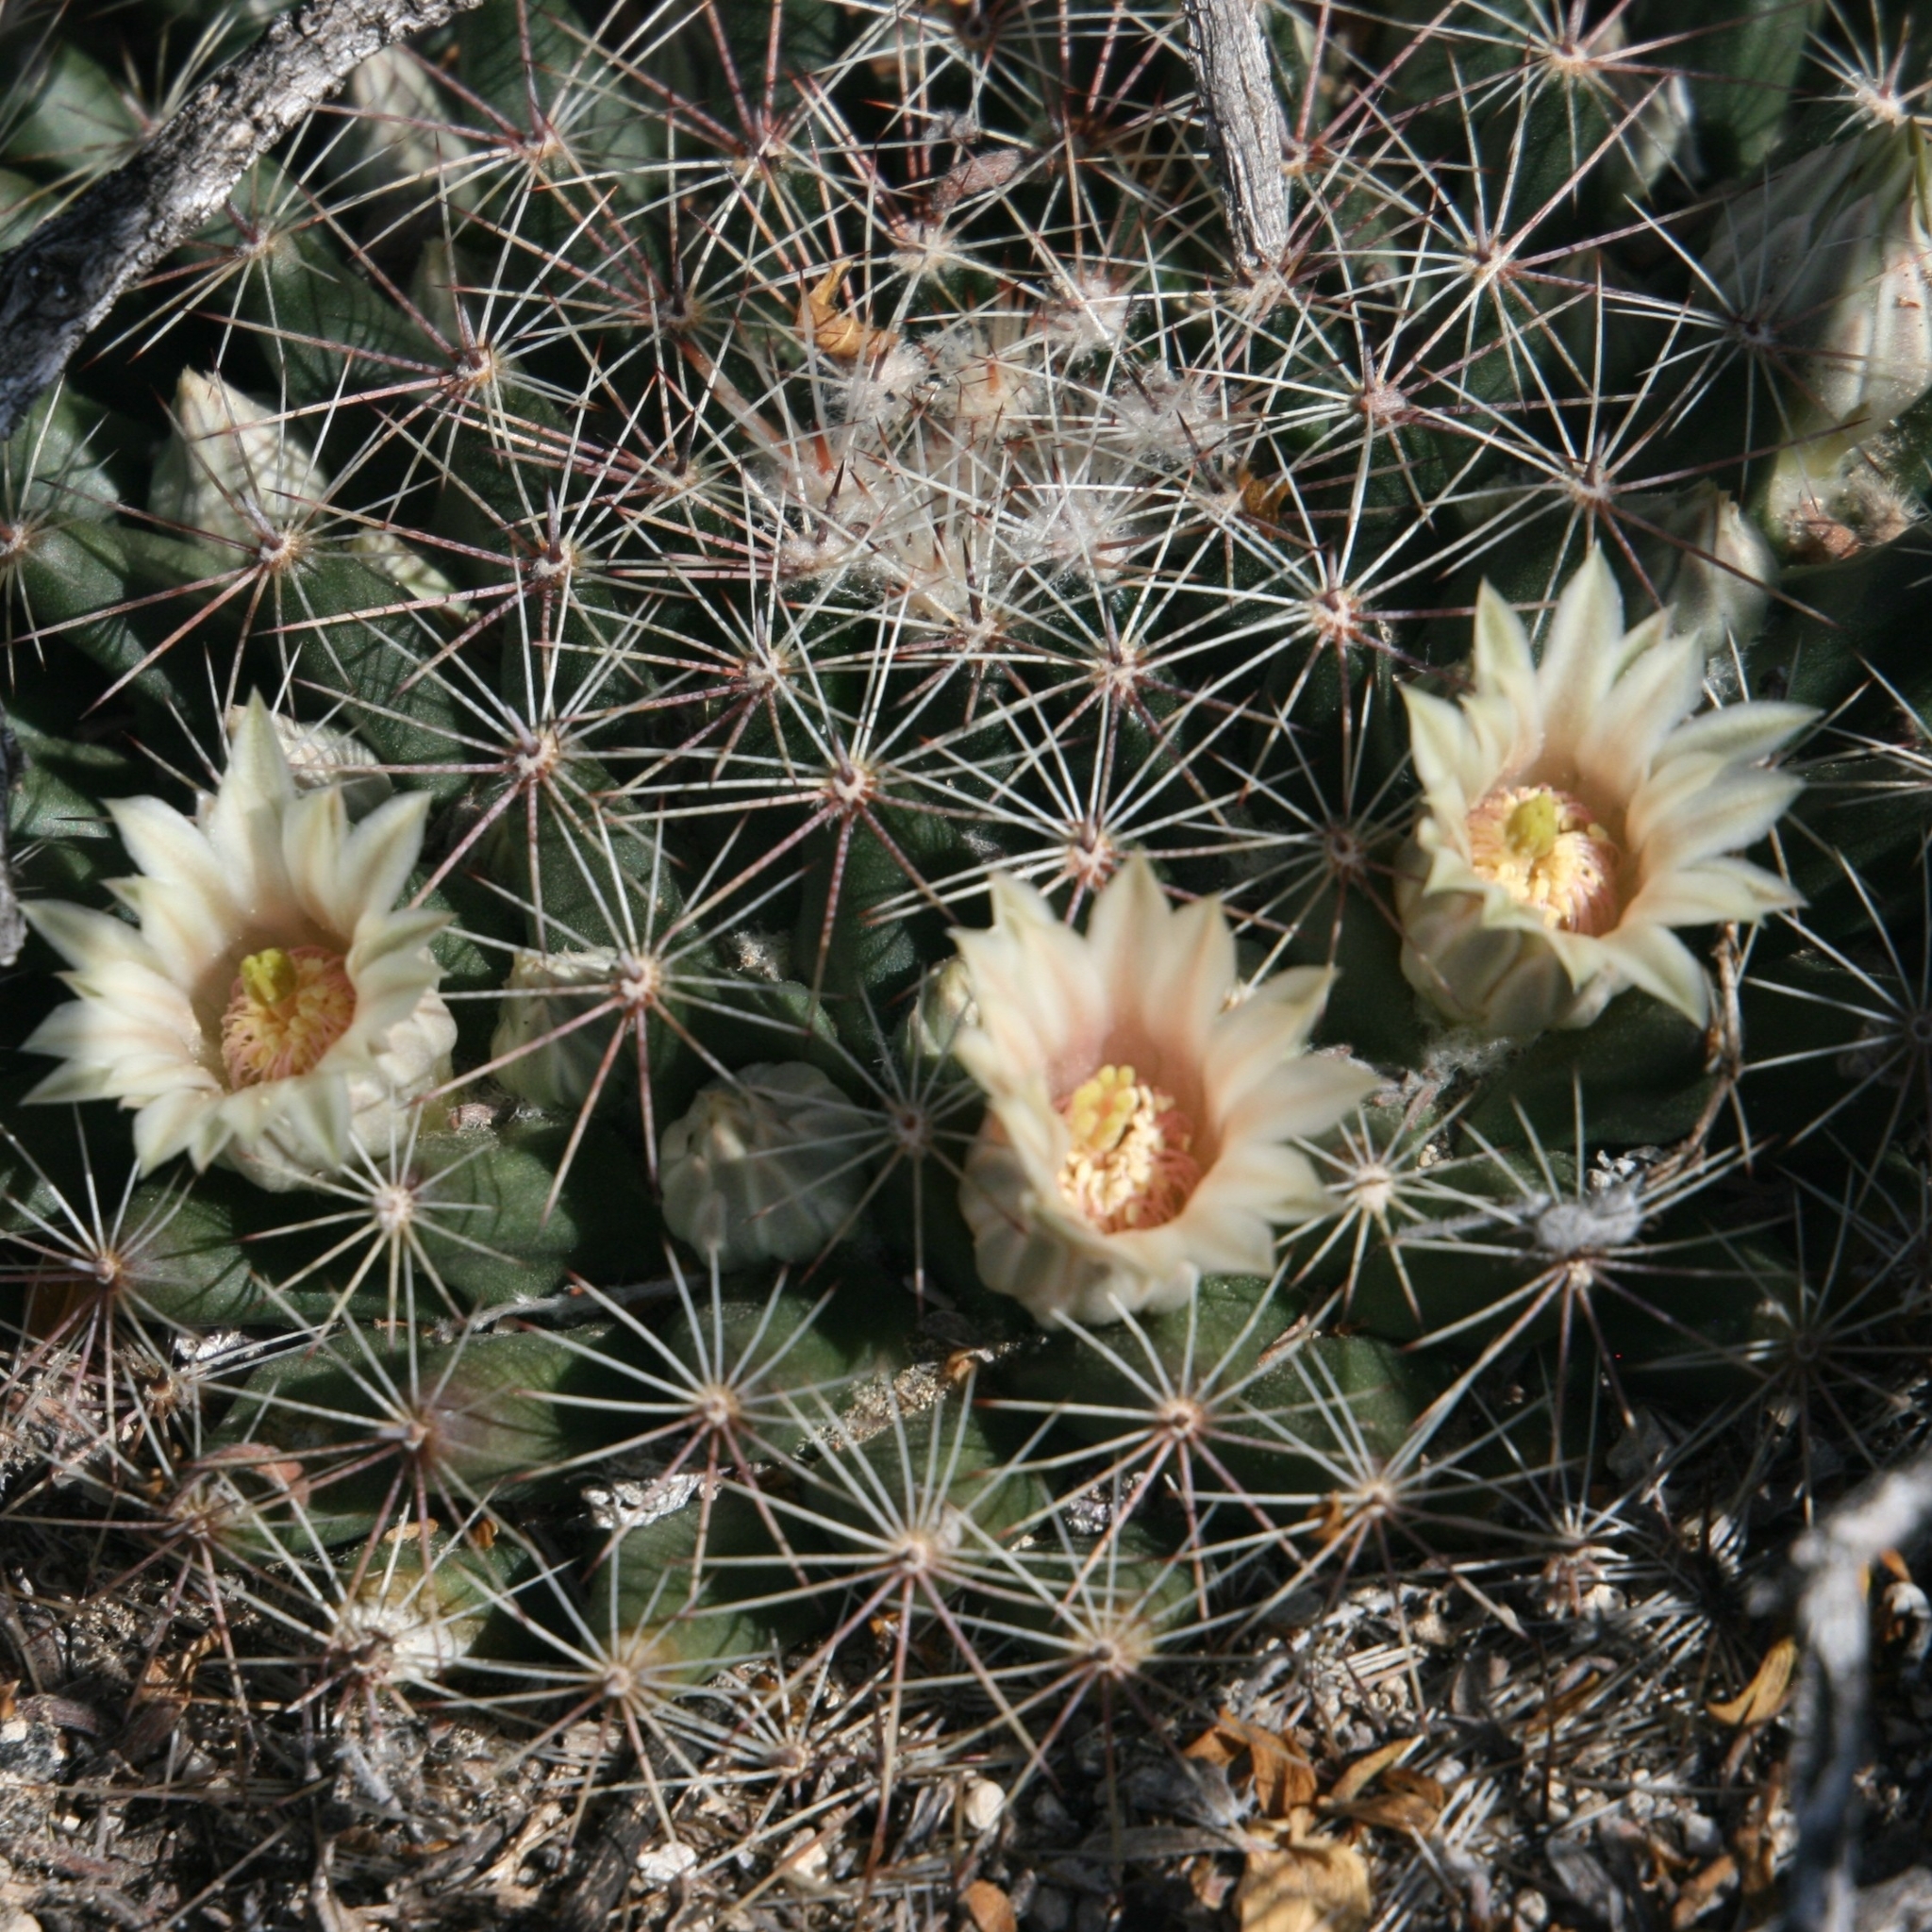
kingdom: Plantae
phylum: Tracheophyta
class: Magnoliopsida
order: Caryophyllales
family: Cactaceae
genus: Mammillaria
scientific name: Mammillaria heyderi
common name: Little nipple cactus
